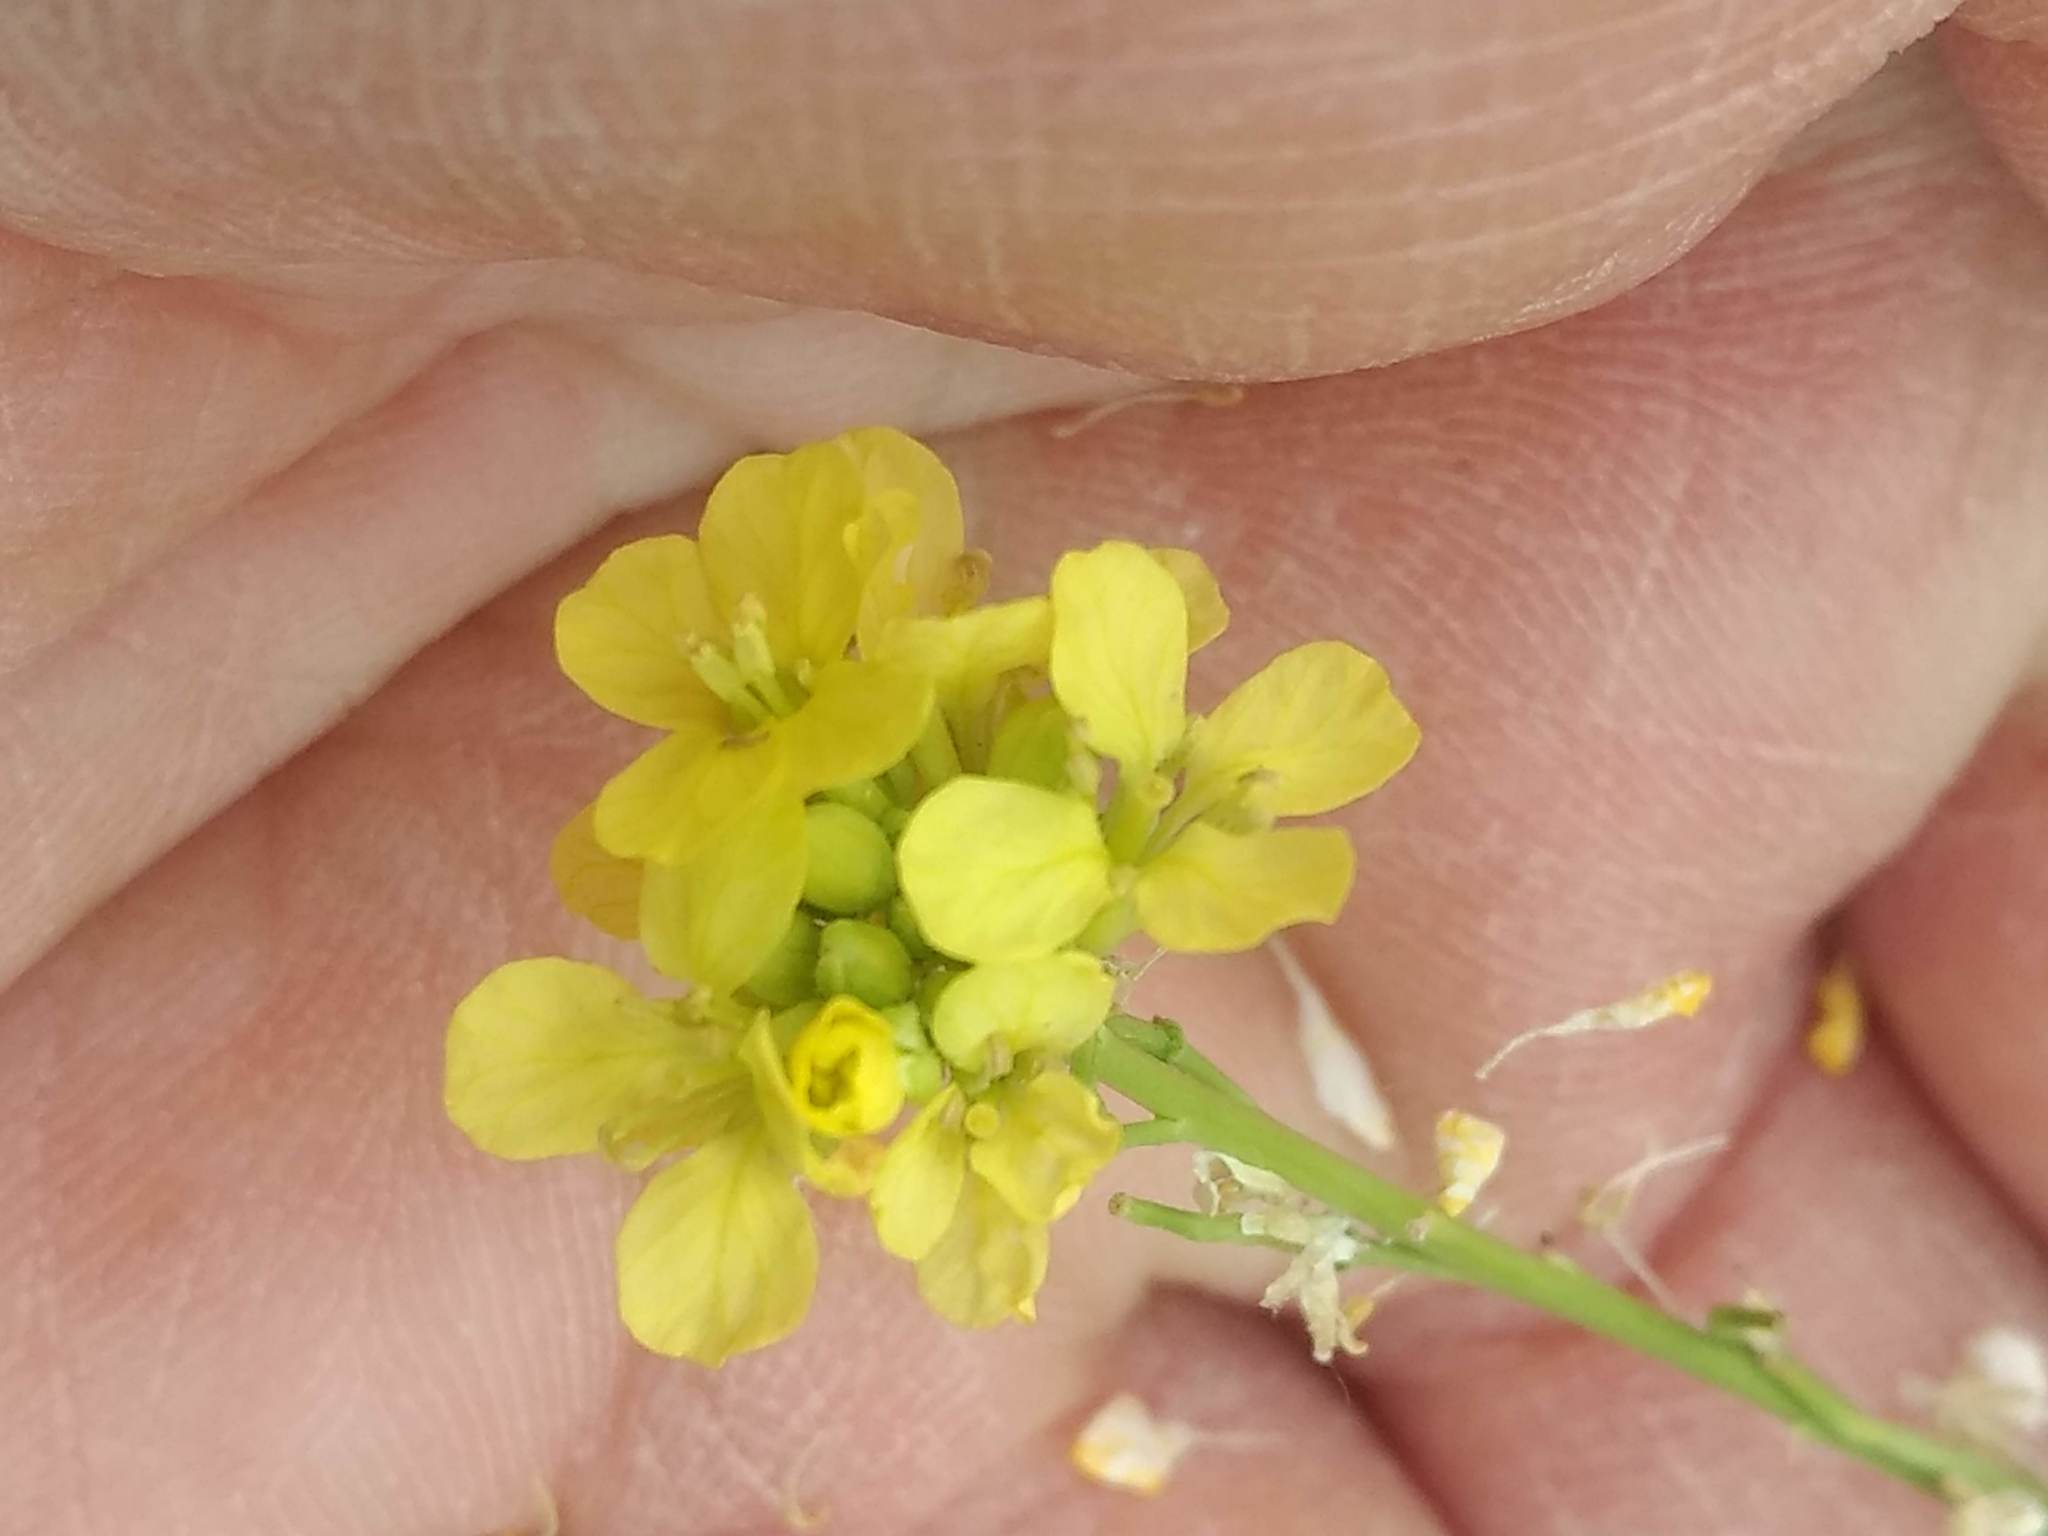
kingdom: Plantae
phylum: Tracheophyta
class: Magnoliopsida
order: Brassicales
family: Brassicaceae
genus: Hirschfeldia
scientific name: Hirschfeldia incana
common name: Hoary mustard
